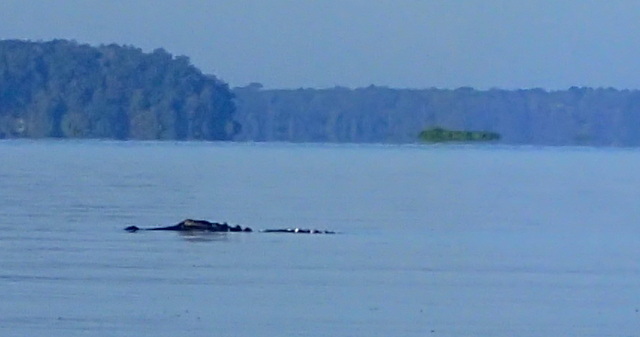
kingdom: Animalia
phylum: Chordata
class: Crocodylia
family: Alligatoridae
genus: Alligator
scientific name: Alligator mississippiensis
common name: American alligator
